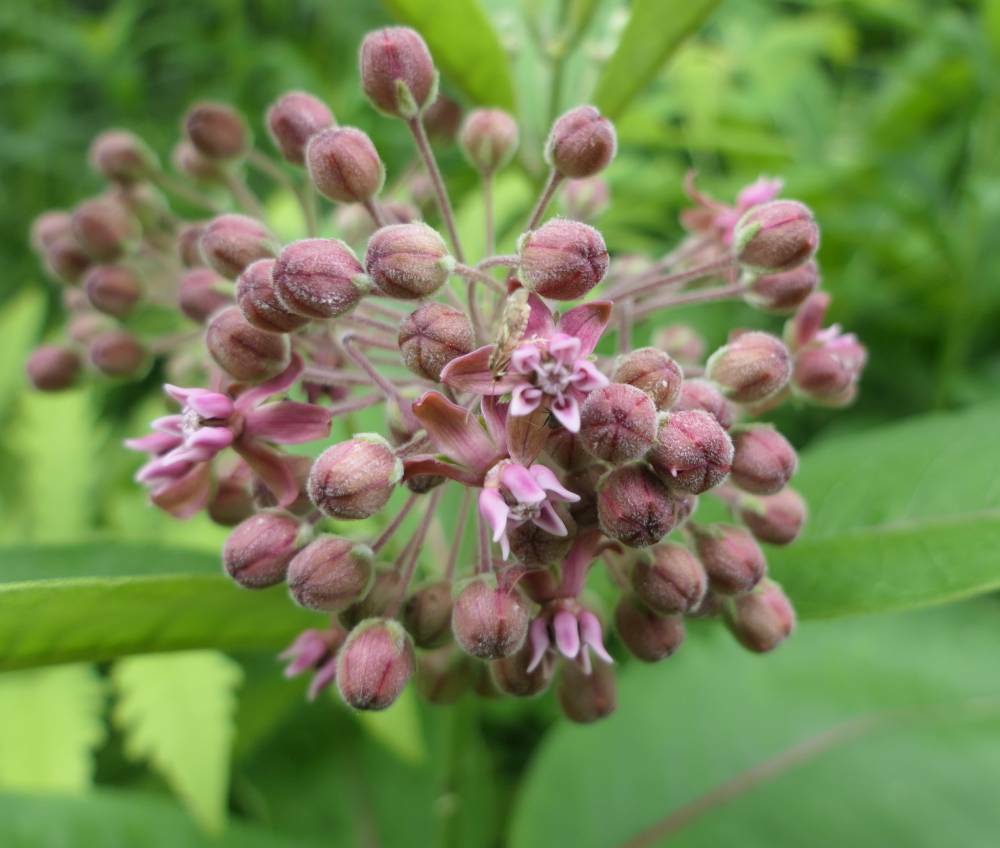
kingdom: Plantae
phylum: Tracheophyta
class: Magnoliopsida
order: Gentianales
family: Apocynaceae
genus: Asclepias
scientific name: Asclepias syriaca
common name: Common milkweed
